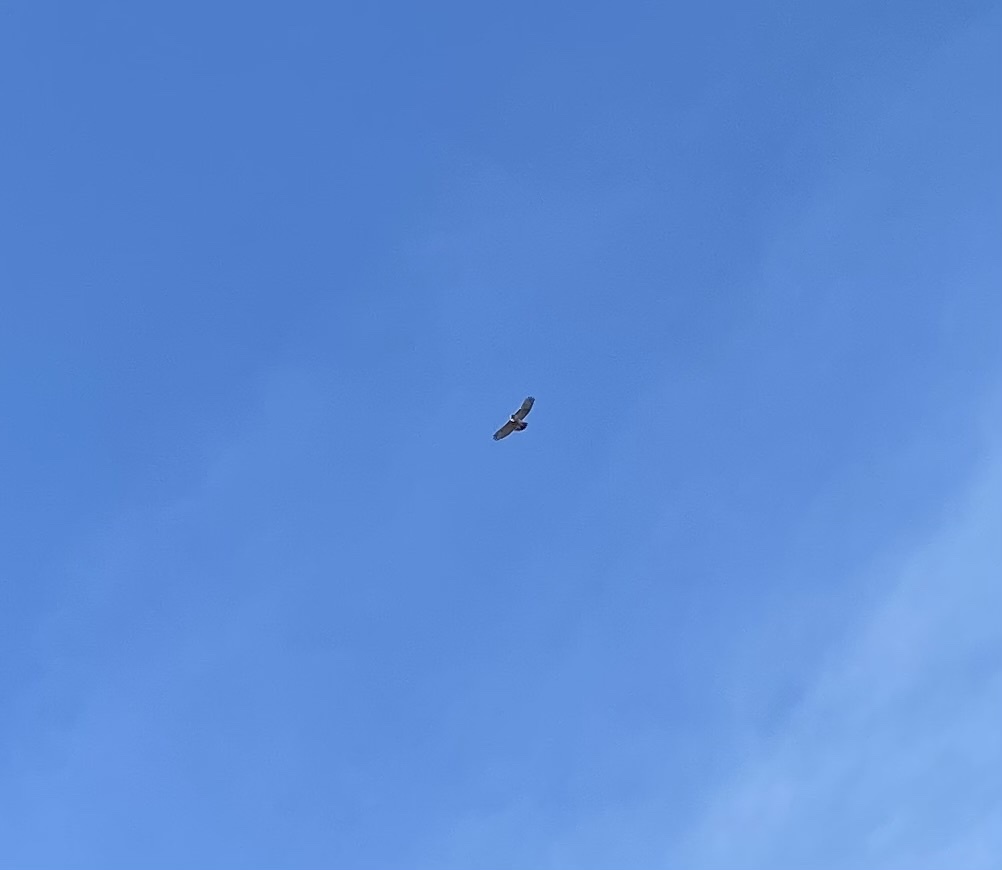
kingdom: Animalia
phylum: Chordata
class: Aves
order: Accipitriformes
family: Accipitridae
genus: Buteo
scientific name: Buteo jamaicensis
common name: Red-tailed hawk
